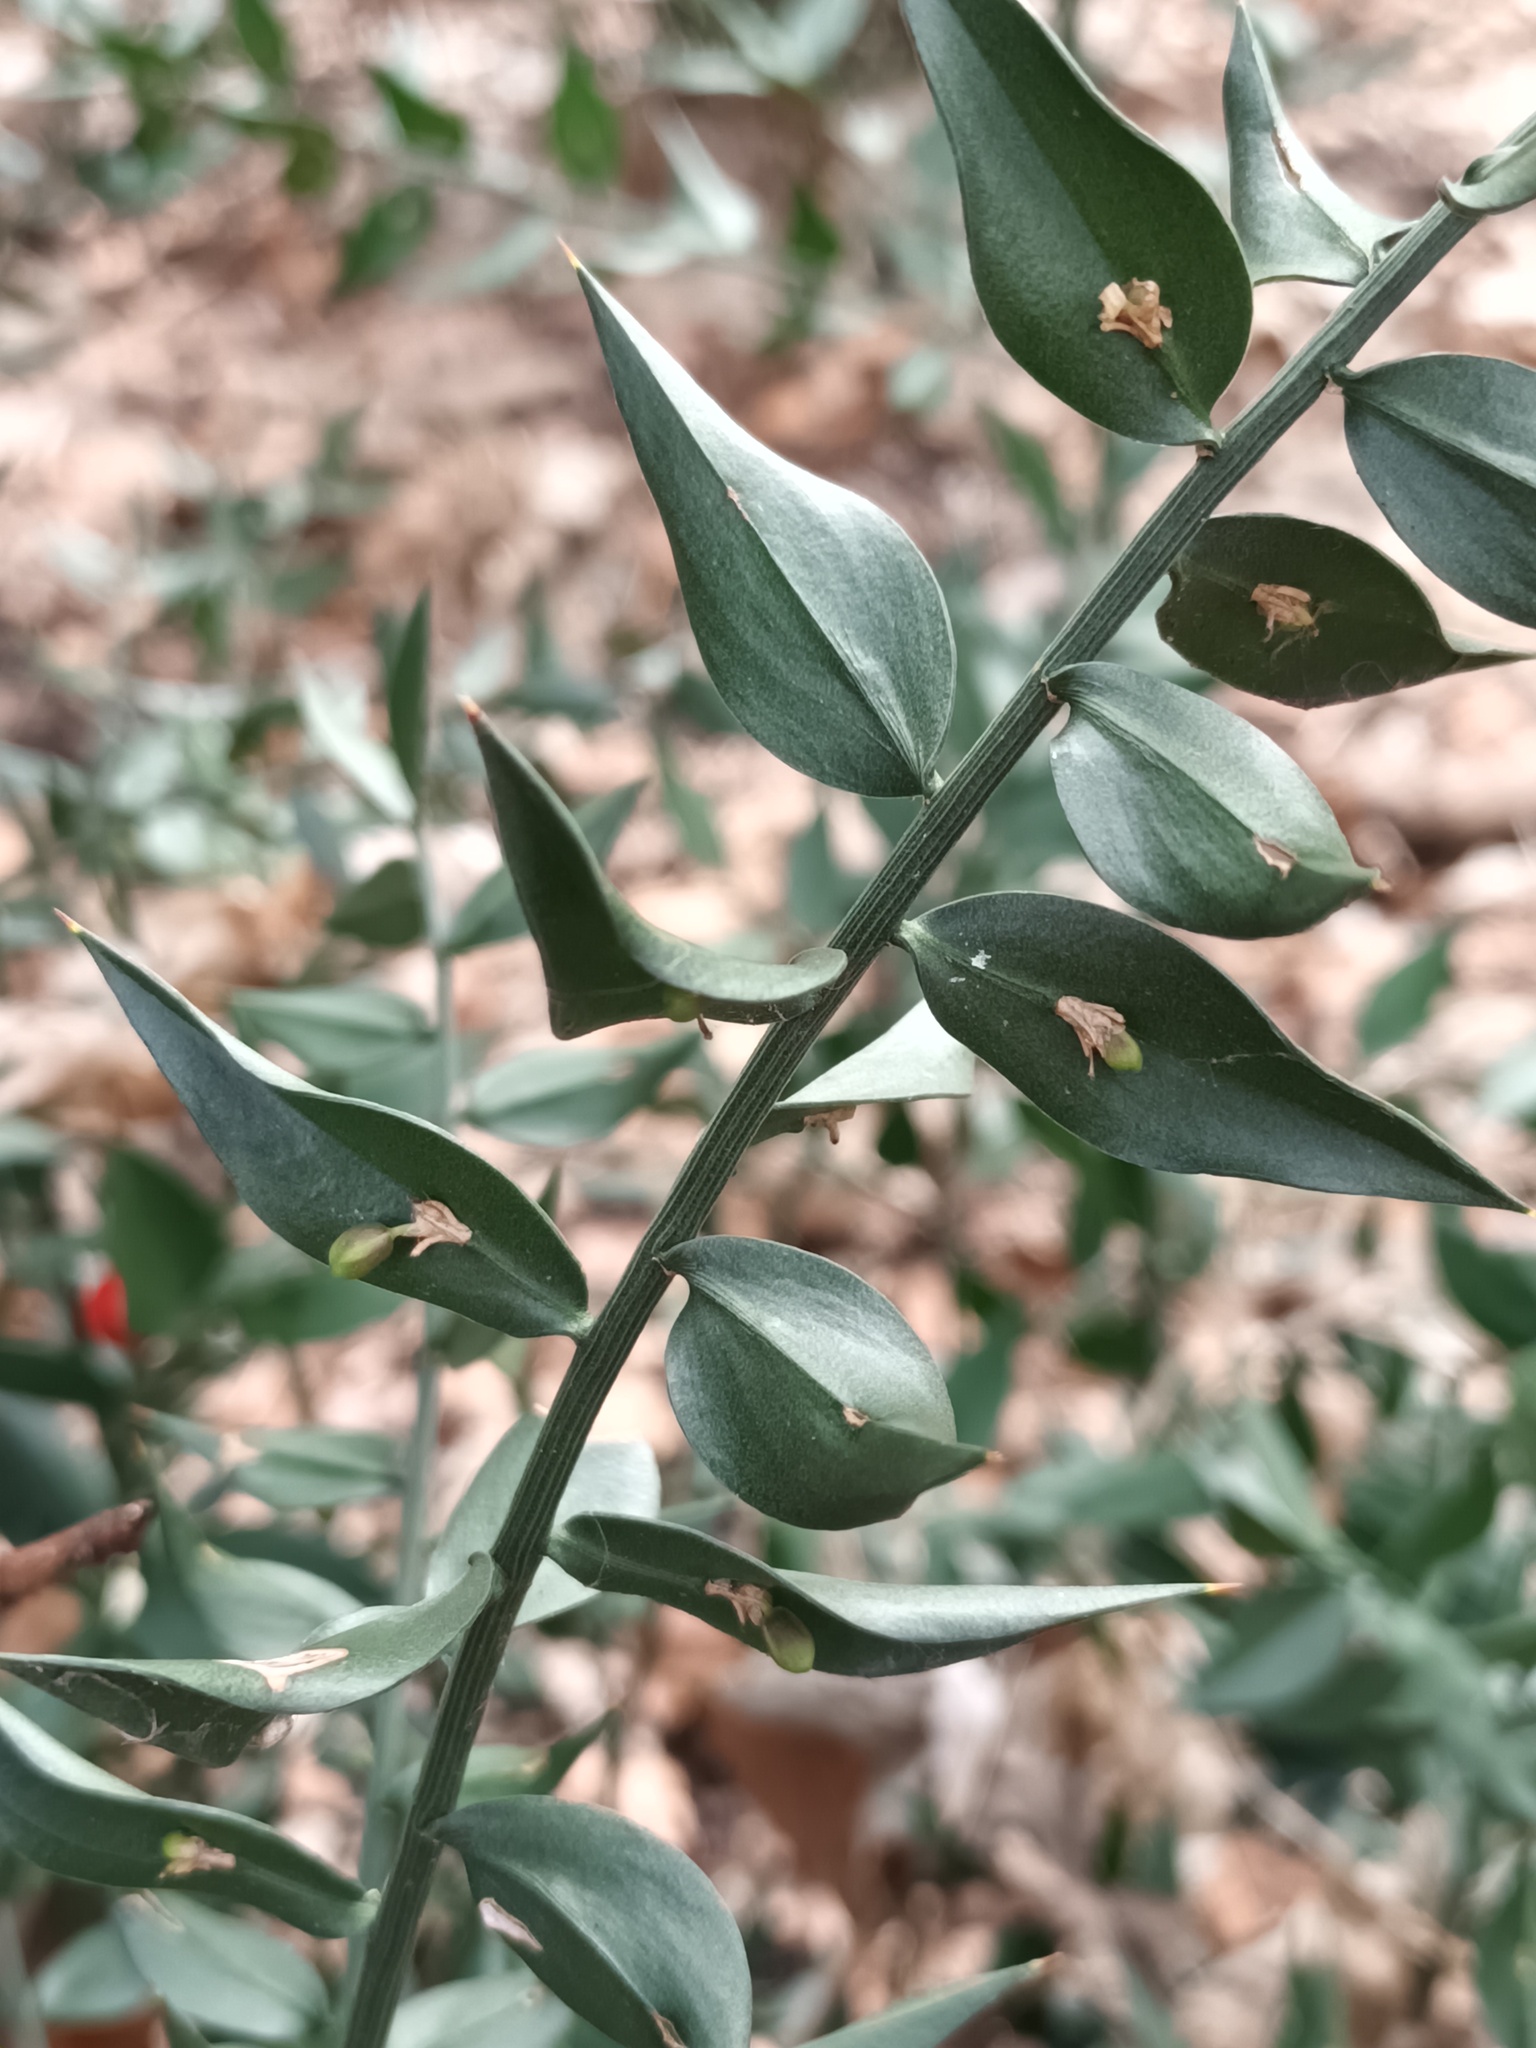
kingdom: Plantae
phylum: Tracheophyta
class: Liliopsida
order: Asparagales
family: Asparagaceae
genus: Ruscus
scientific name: Ruscus aculeatus
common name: Butcher's-broom
